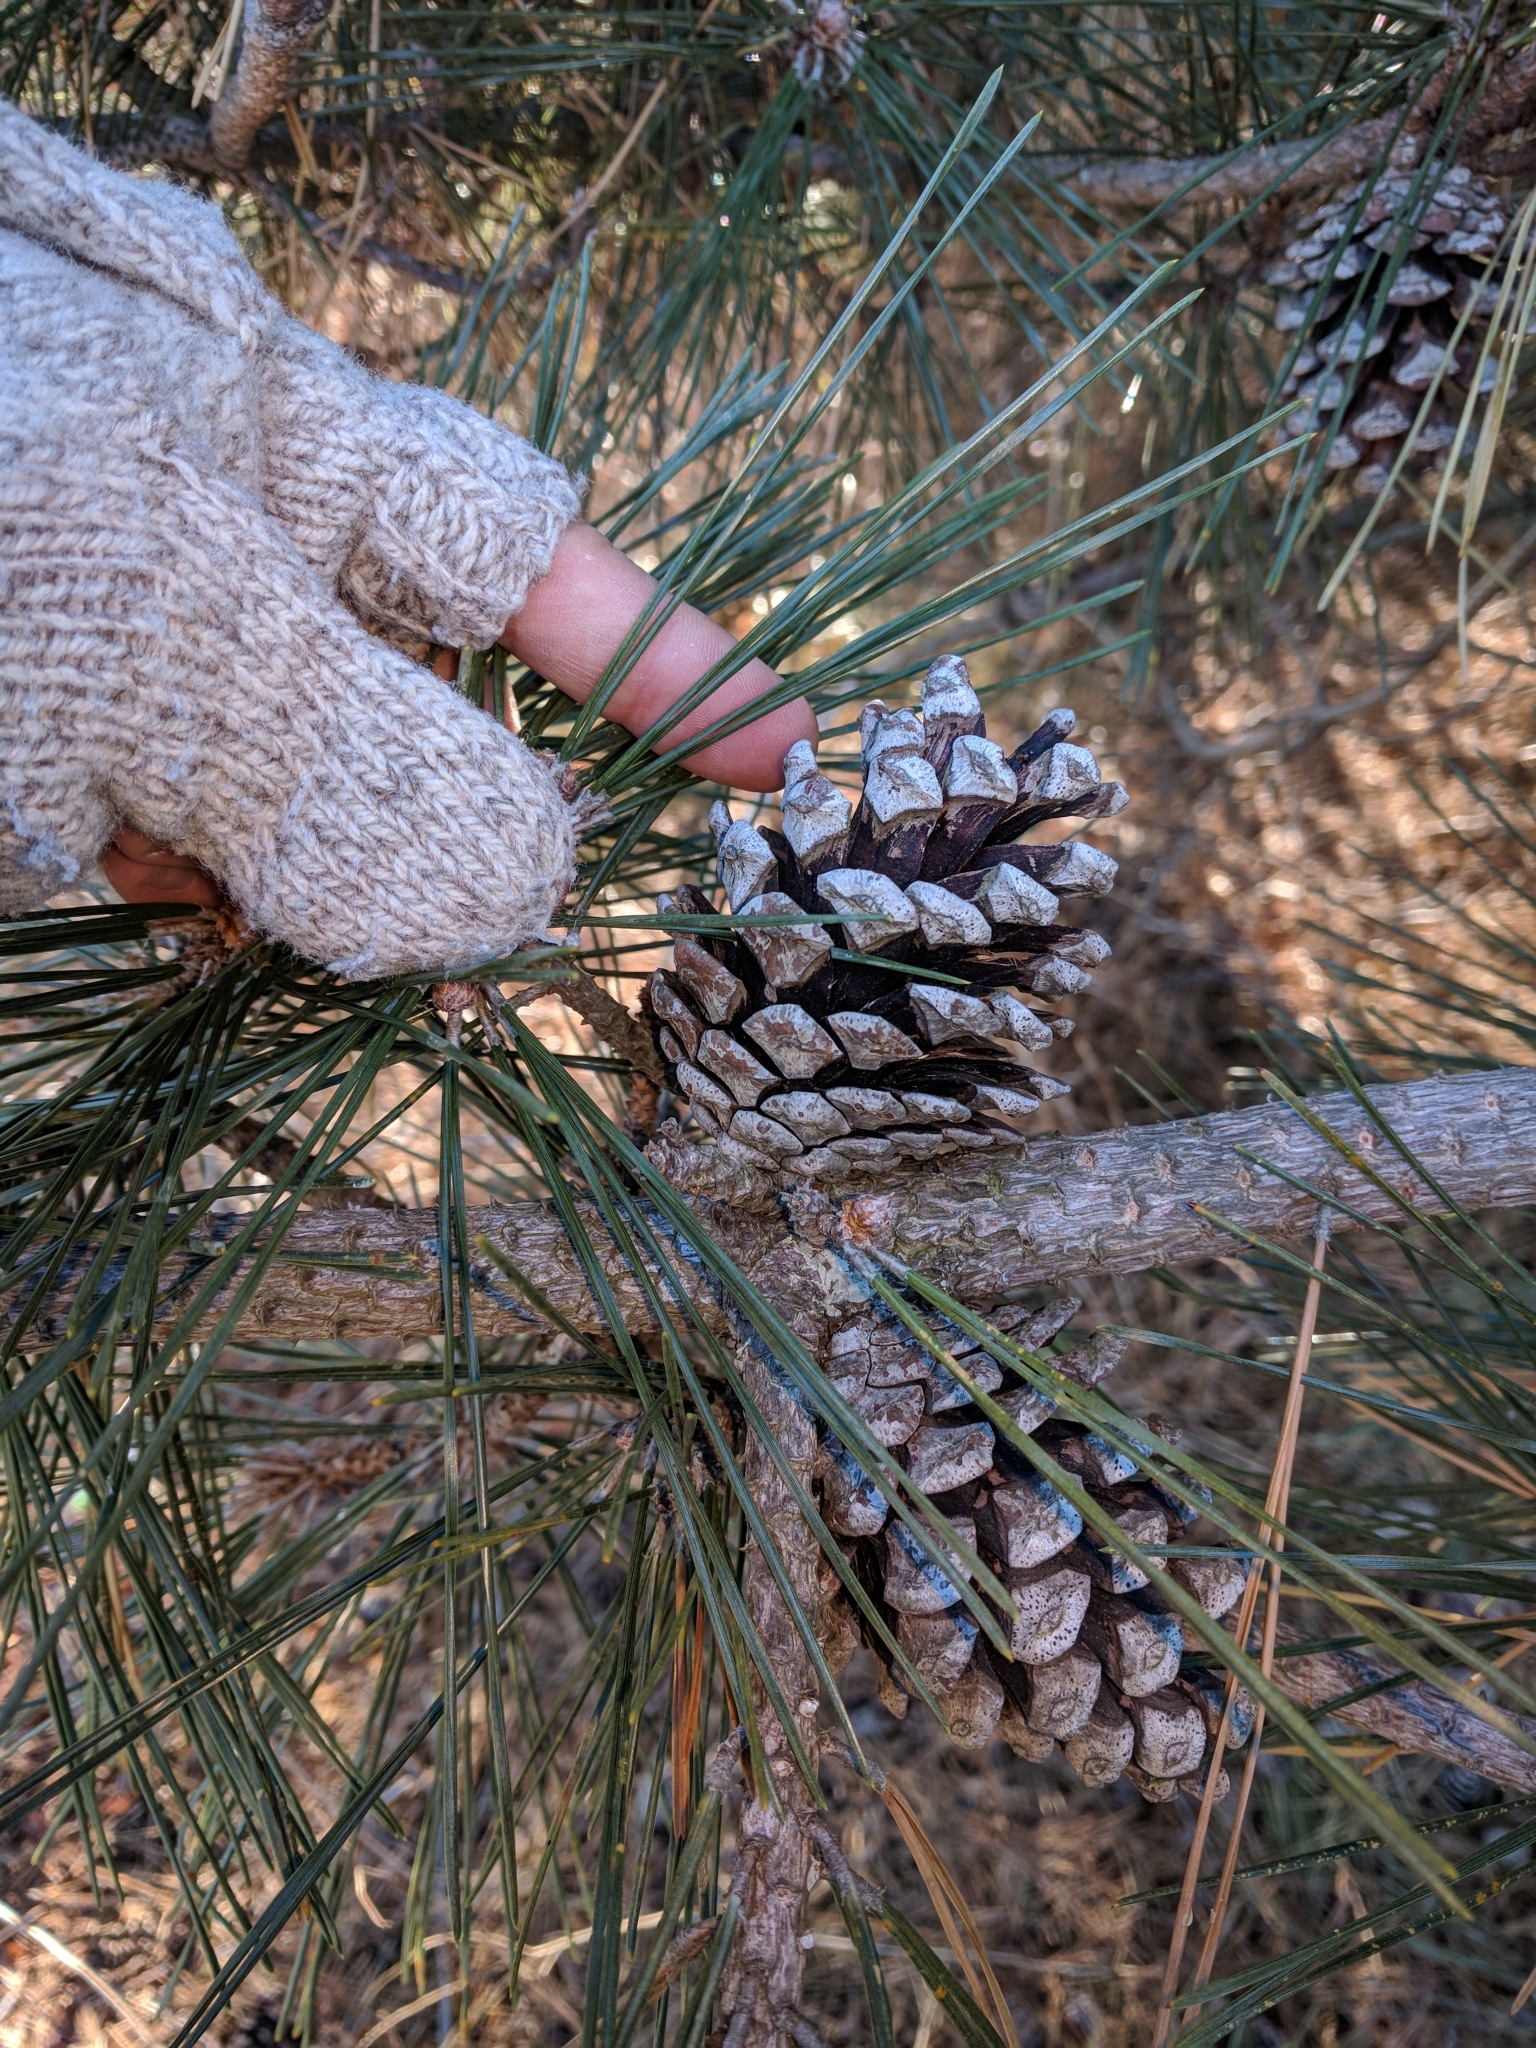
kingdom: Plantae
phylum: Tracheophyta
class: Pinopsida
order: Pinales
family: Pinaceae
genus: Pinus
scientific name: Pinus resinosa
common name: Norway pine
